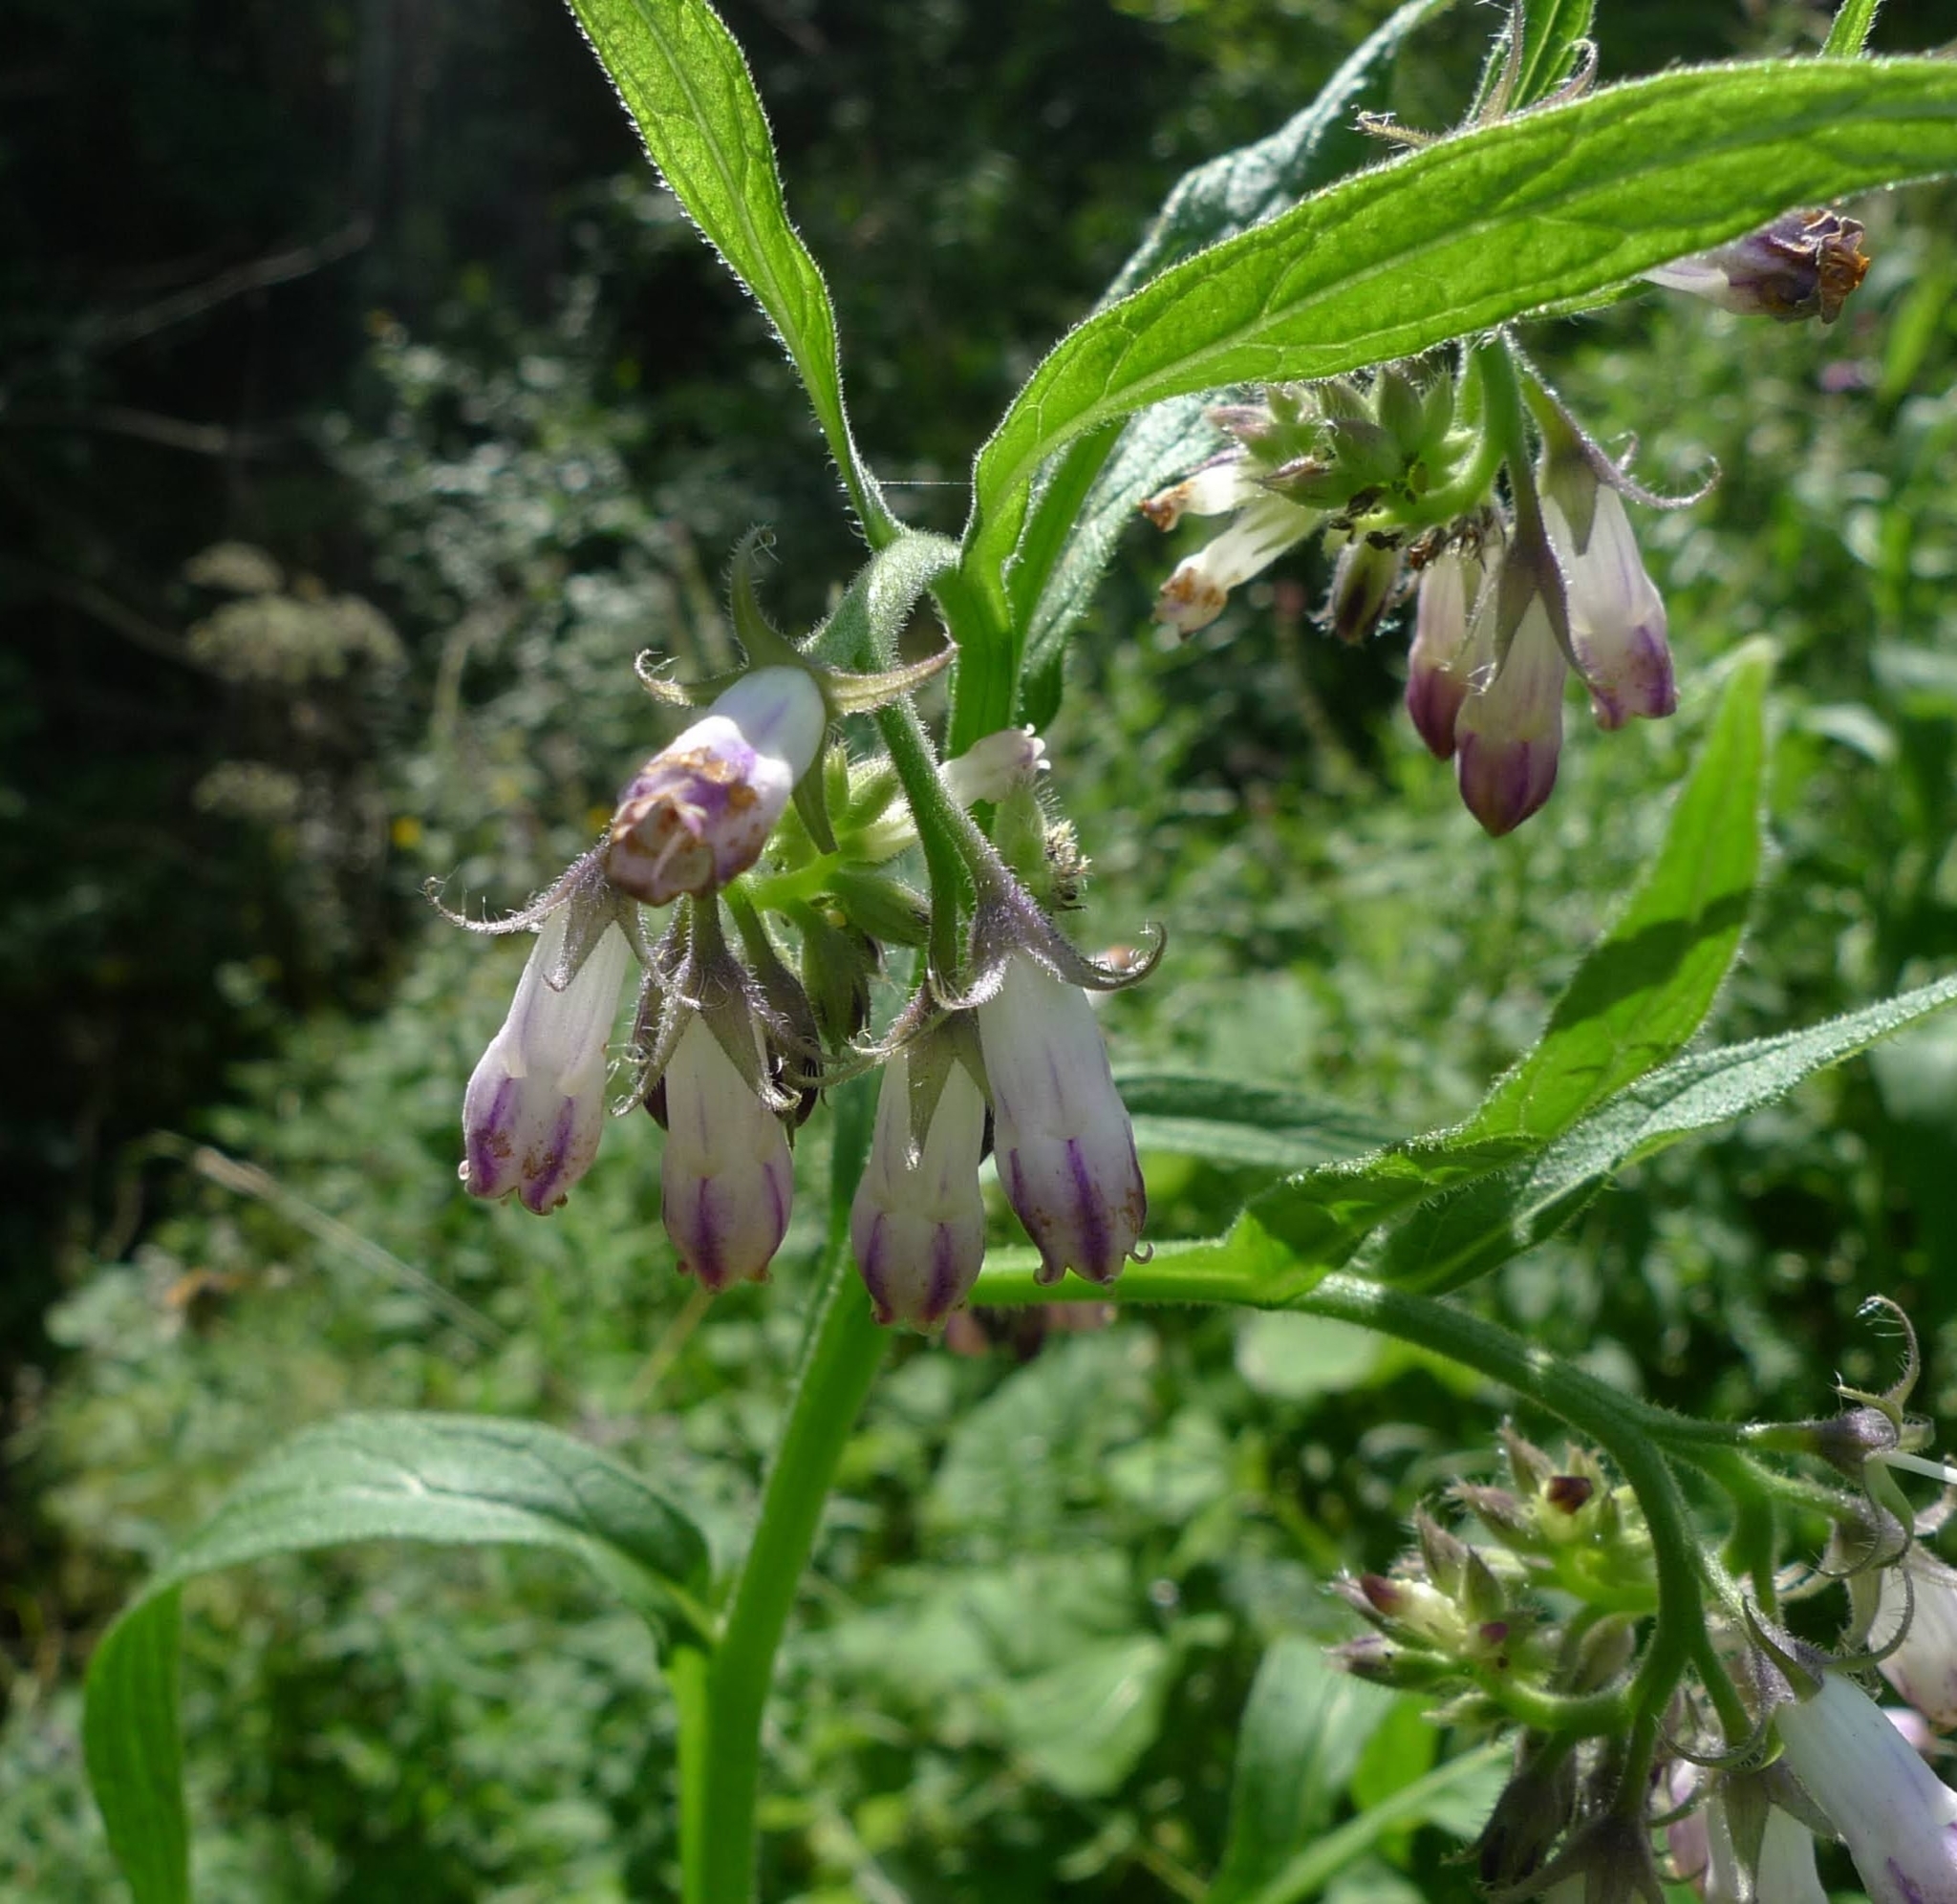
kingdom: Plantae
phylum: Tracheophyta
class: Magnoliopsida
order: Boraginales
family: Boraginaceae
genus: Symphytum
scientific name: Symphytum officinale
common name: Common comfrey
